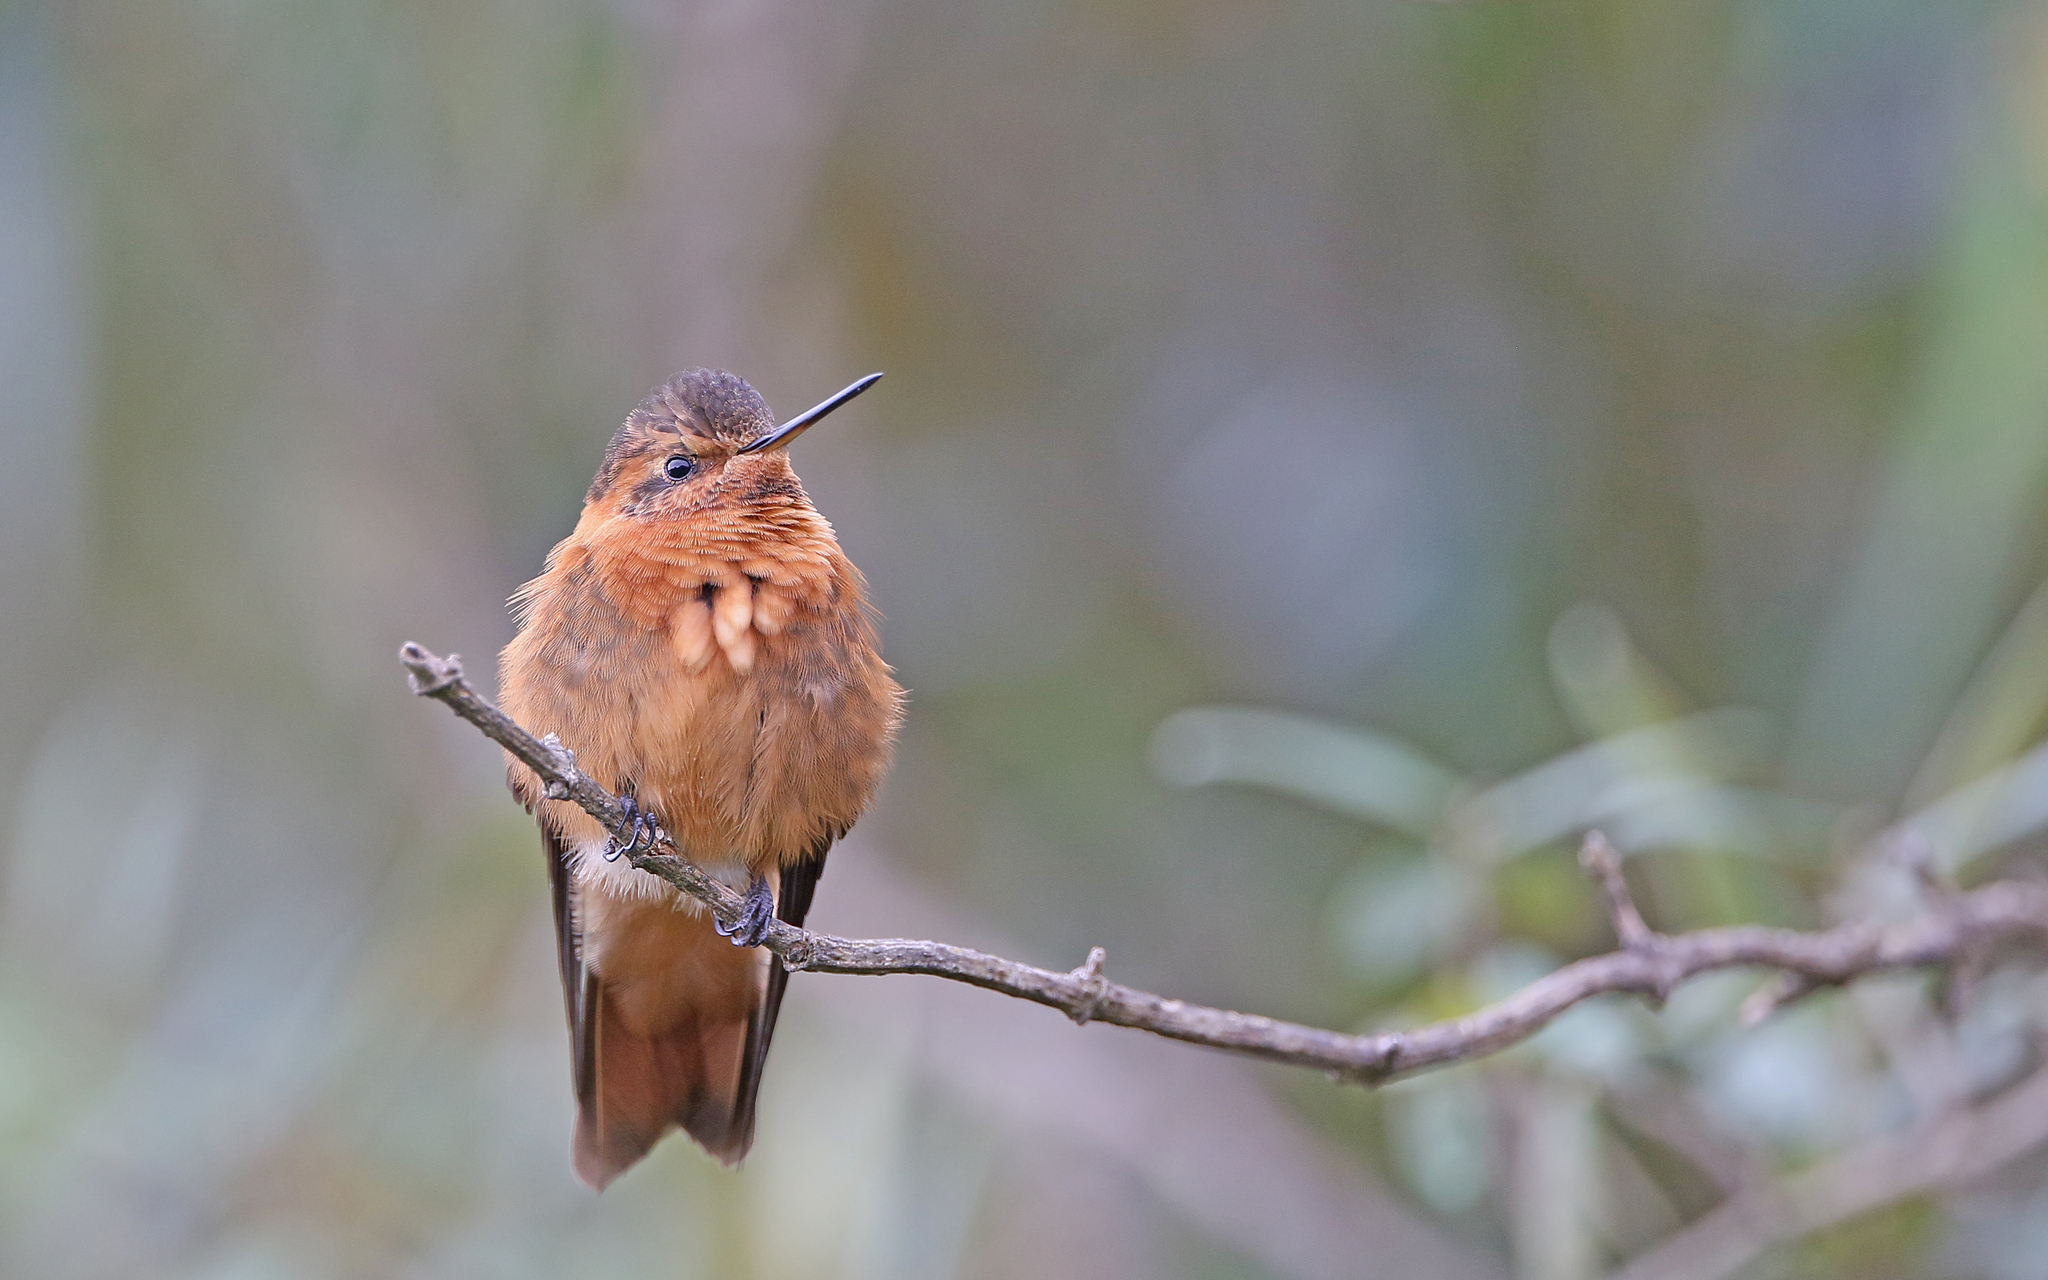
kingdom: Animalia
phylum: Chordata
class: Aves
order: Apodiformes
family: Trochilidae
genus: Aglaeactis
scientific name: Aglaeactis cupripennis
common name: Shining sunbeam
